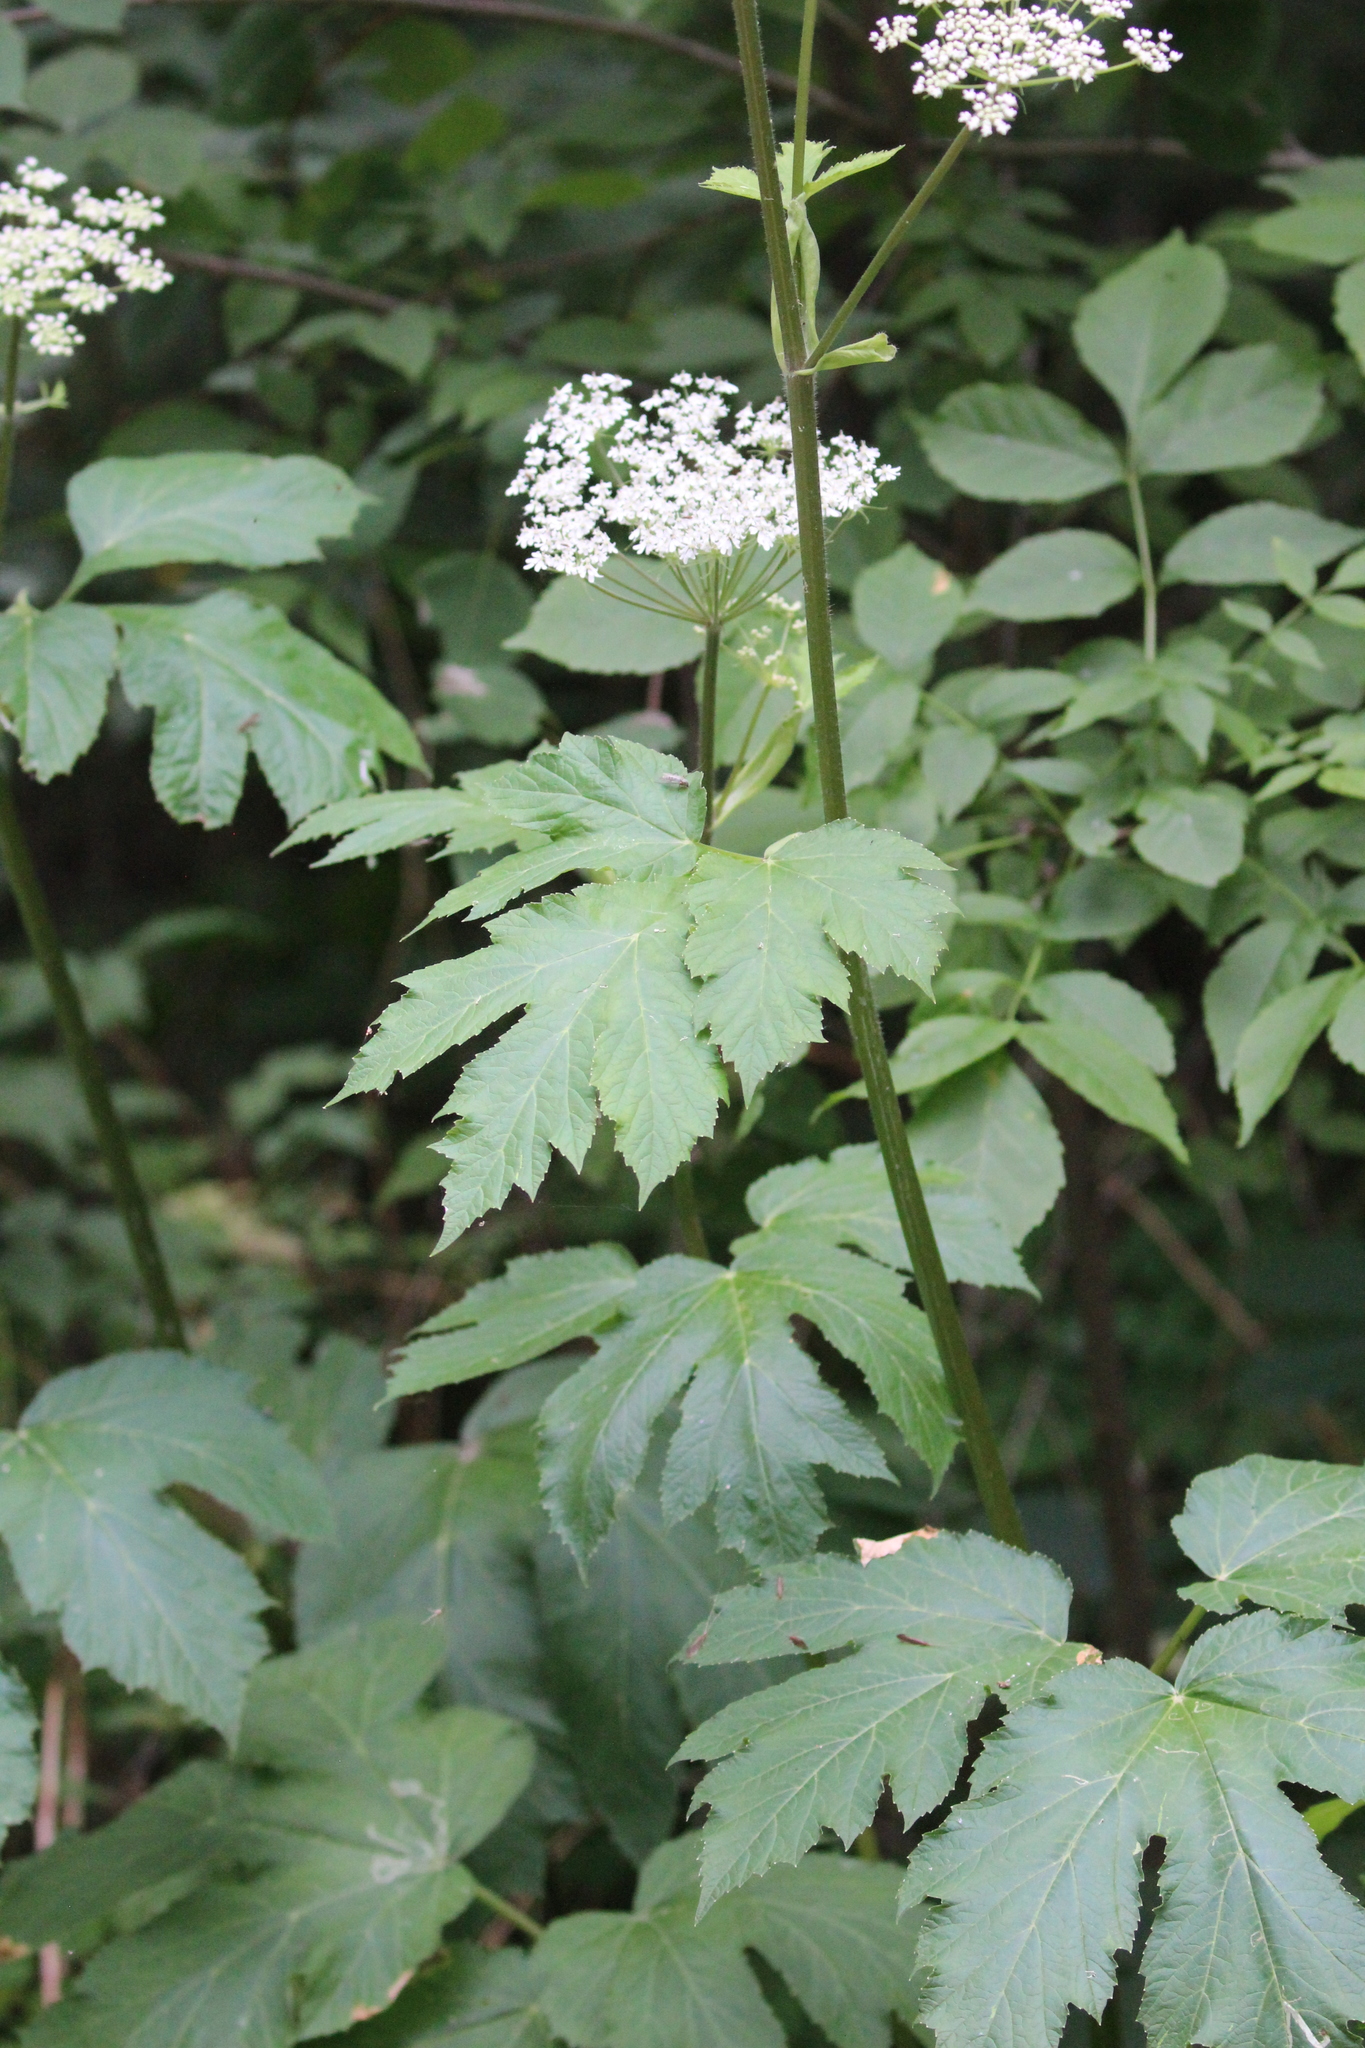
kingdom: Plantae
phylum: Tracheophyta
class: Magnoliopsida
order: Apiales
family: Apiaceae
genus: Heracleum
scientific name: Heracleum maximum
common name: American cow parsnip
